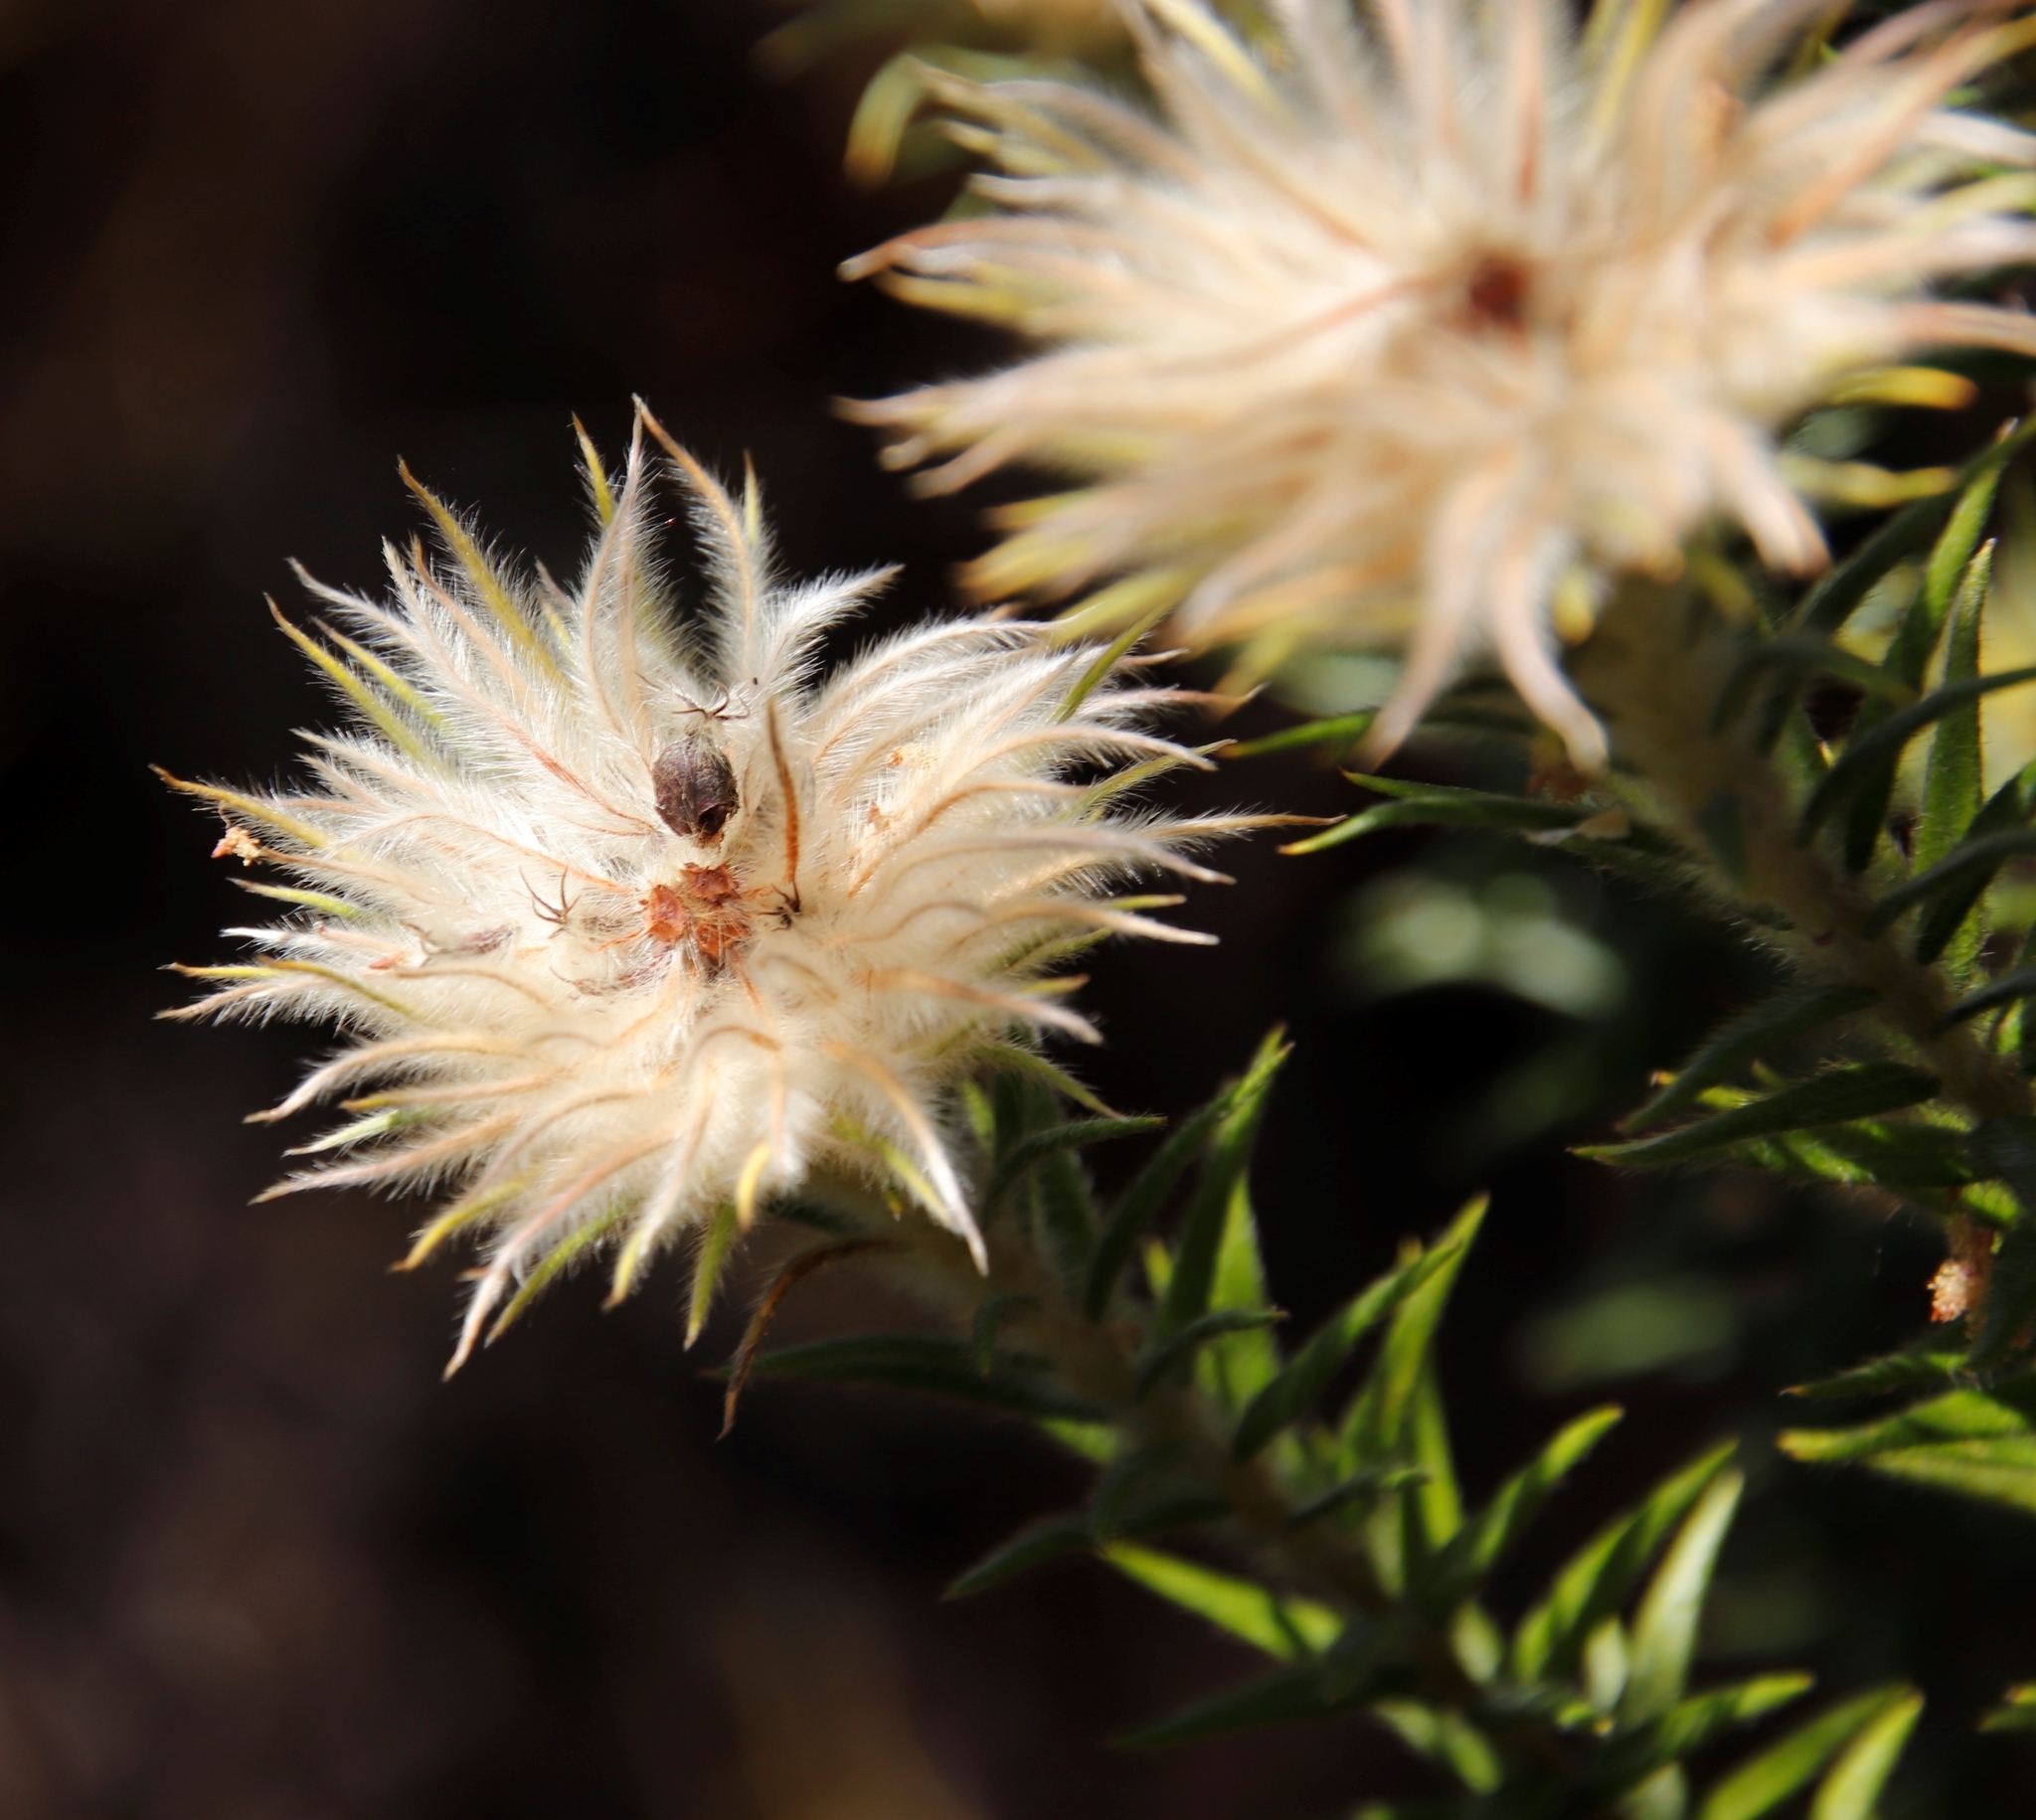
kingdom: Plantae
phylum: Tracheophyta
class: Magnoliopsida
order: Rosales
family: Rhamnaceae
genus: Phylica
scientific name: Phylica pubescens
